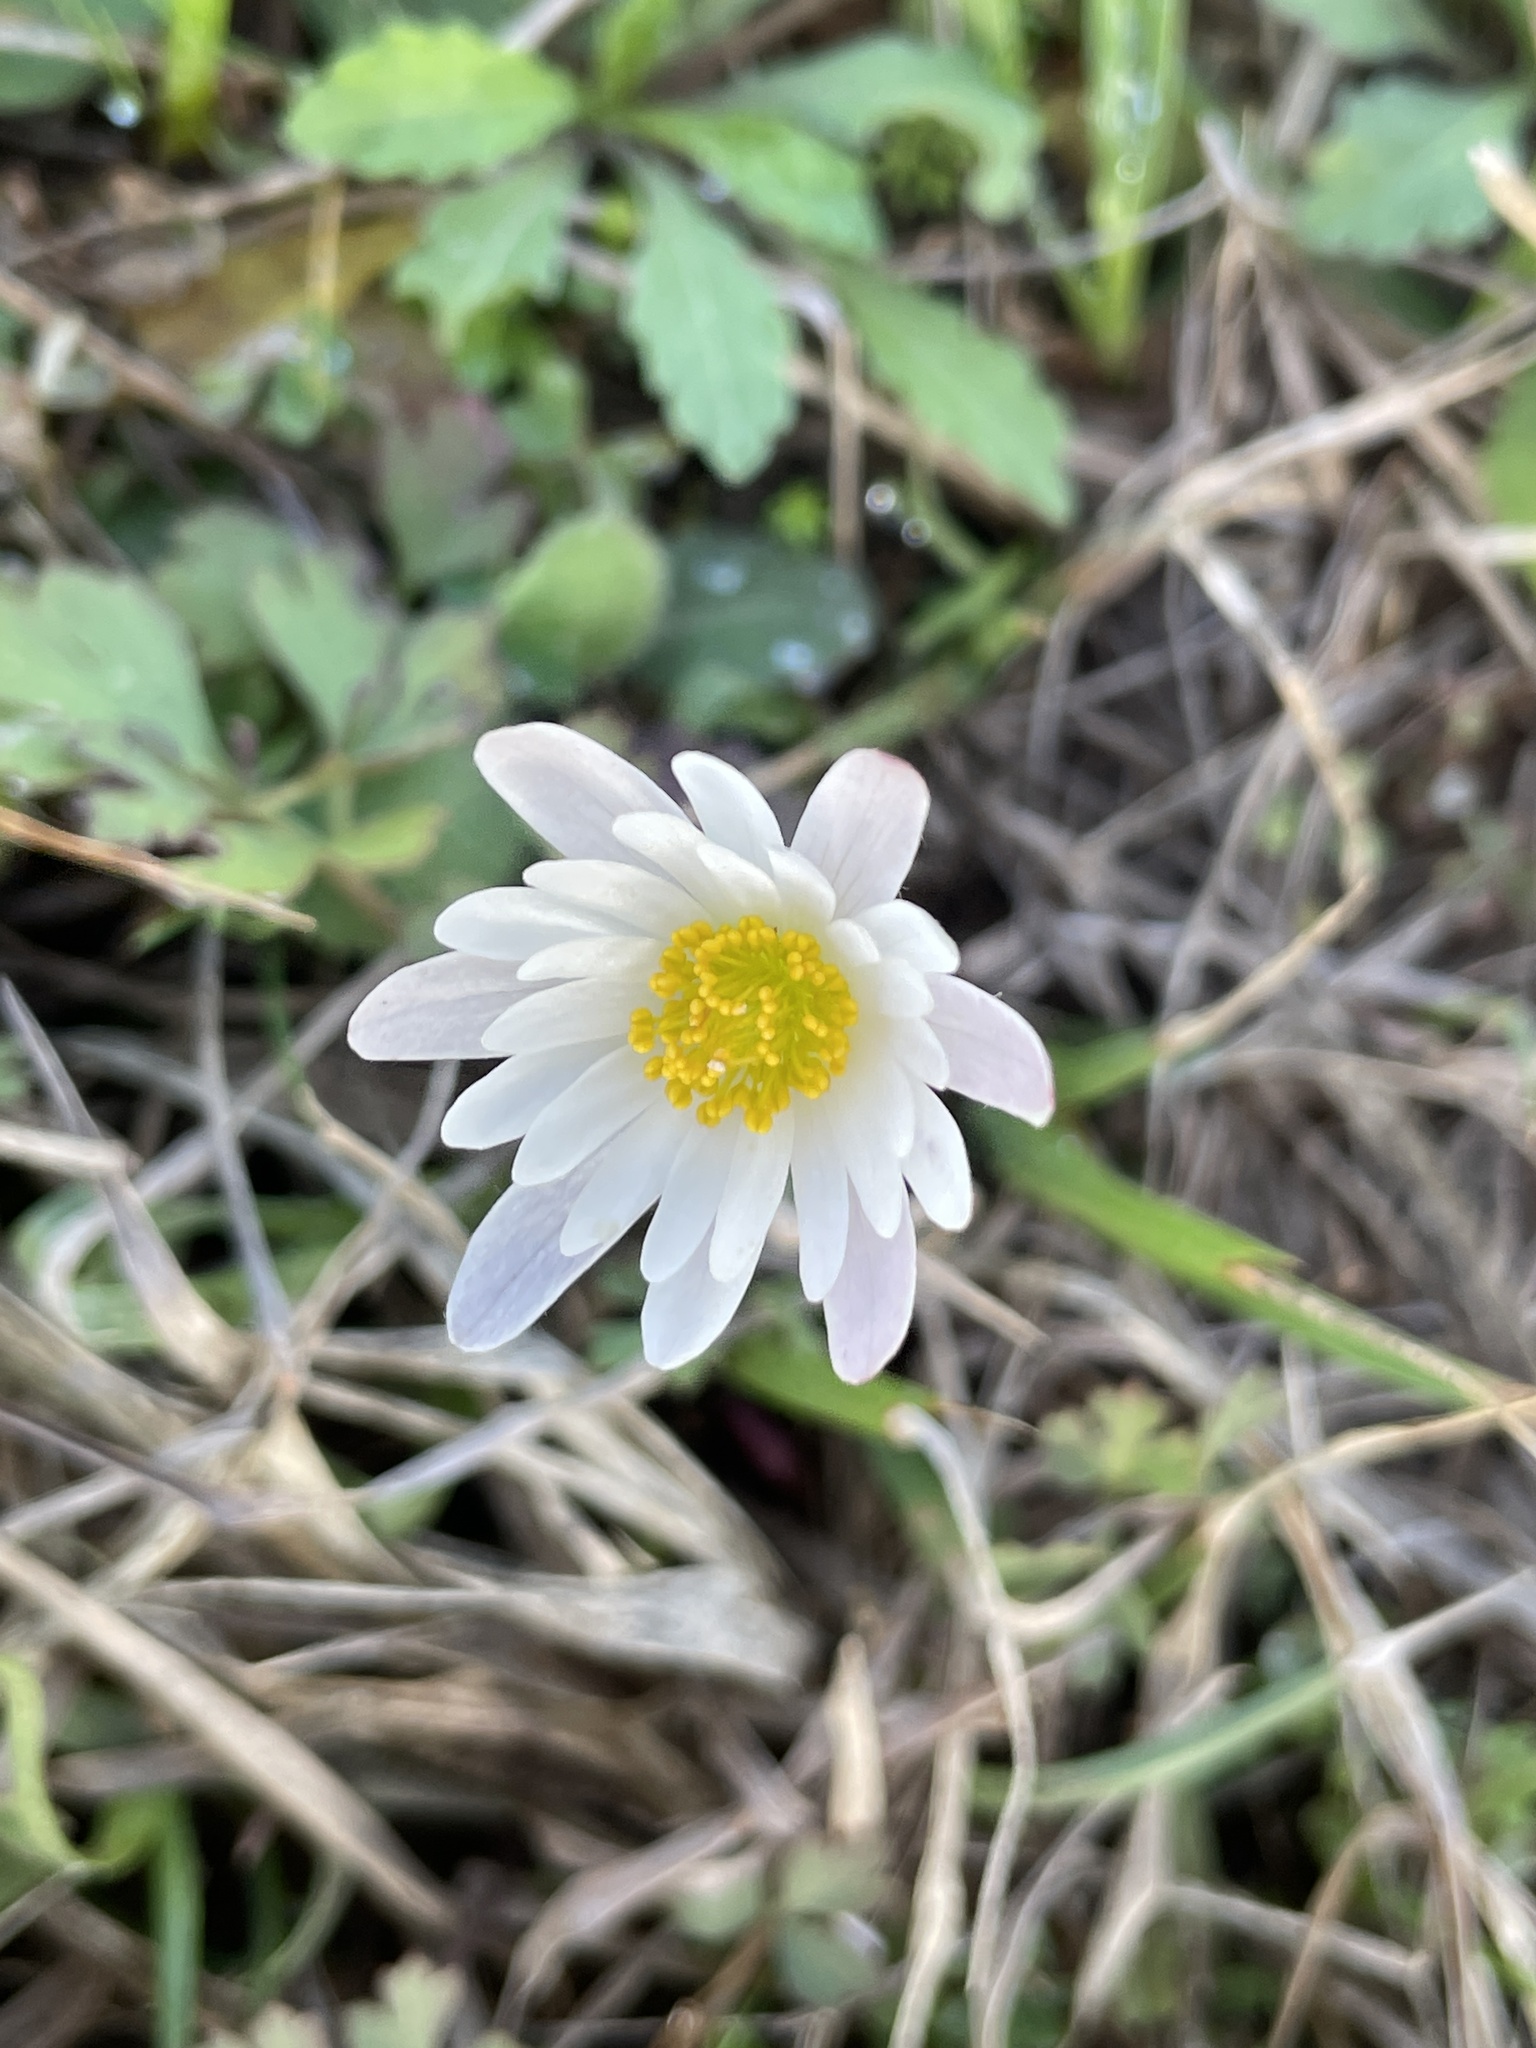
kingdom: Plantae
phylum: Tracheophyta
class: Magnoliopsida
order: Ranunculales
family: Ranunculaceae
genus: Anemone
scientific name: Anemone caroliniana
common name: Carolina anemone
